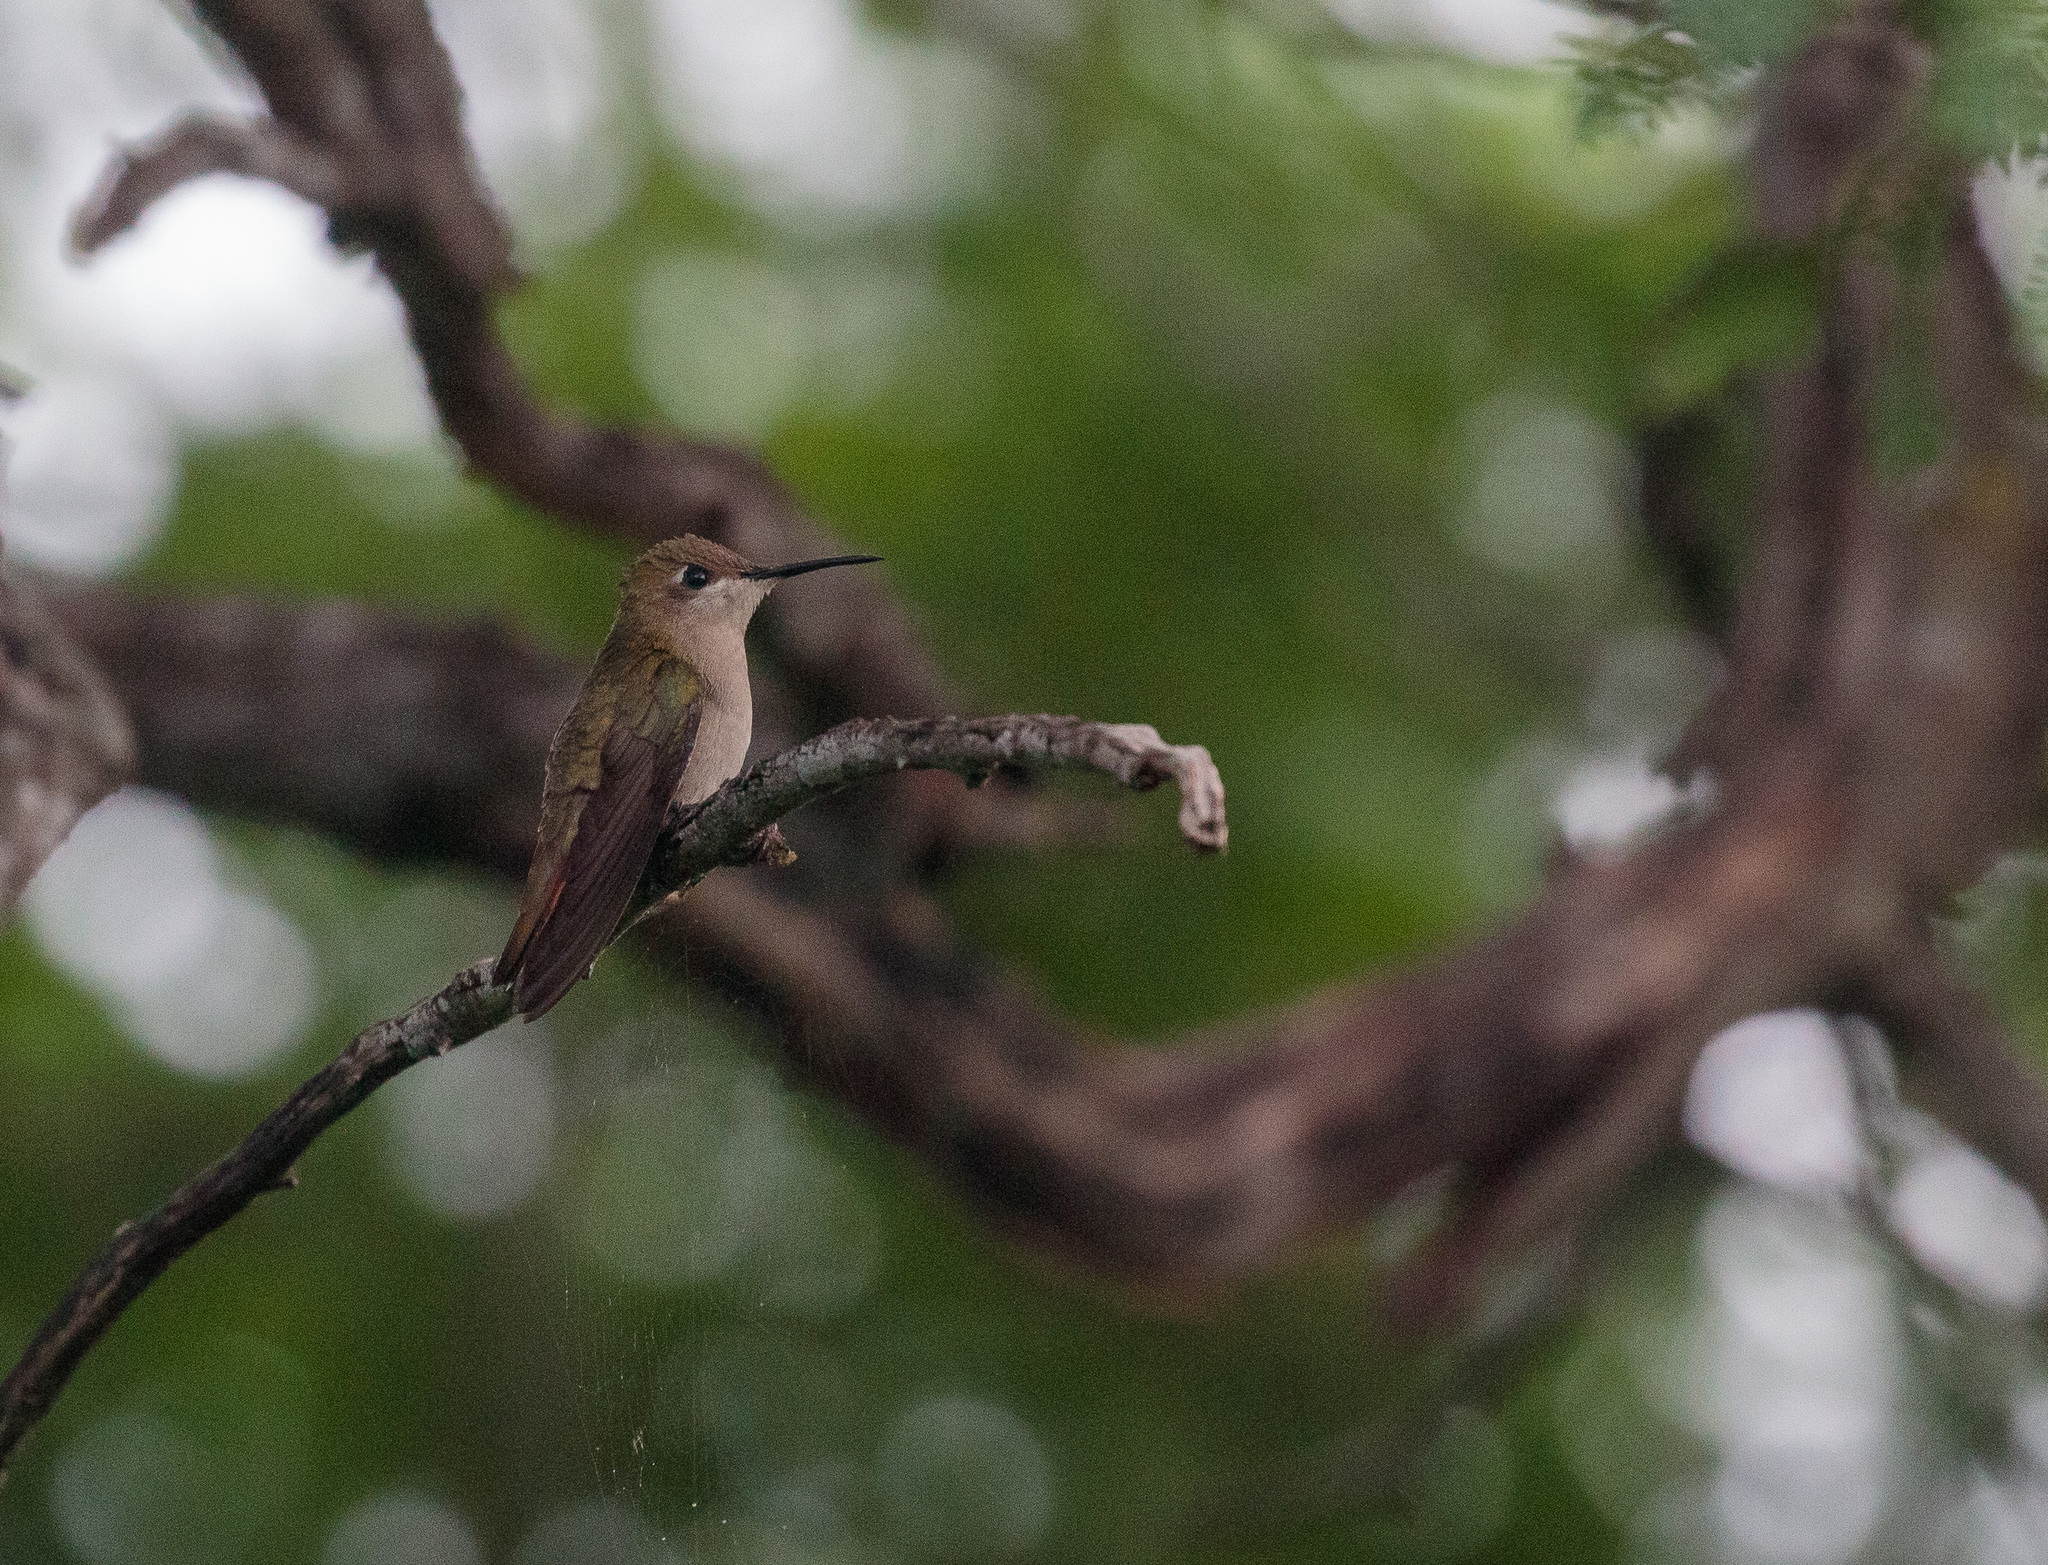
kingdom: Animalia
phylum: Chordata
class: Aves
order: Apodiformes
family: Trochilidae
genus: Chrysolampis
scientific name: Chrysolampis mosquitus
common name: Ruby-topaz hummingbird
